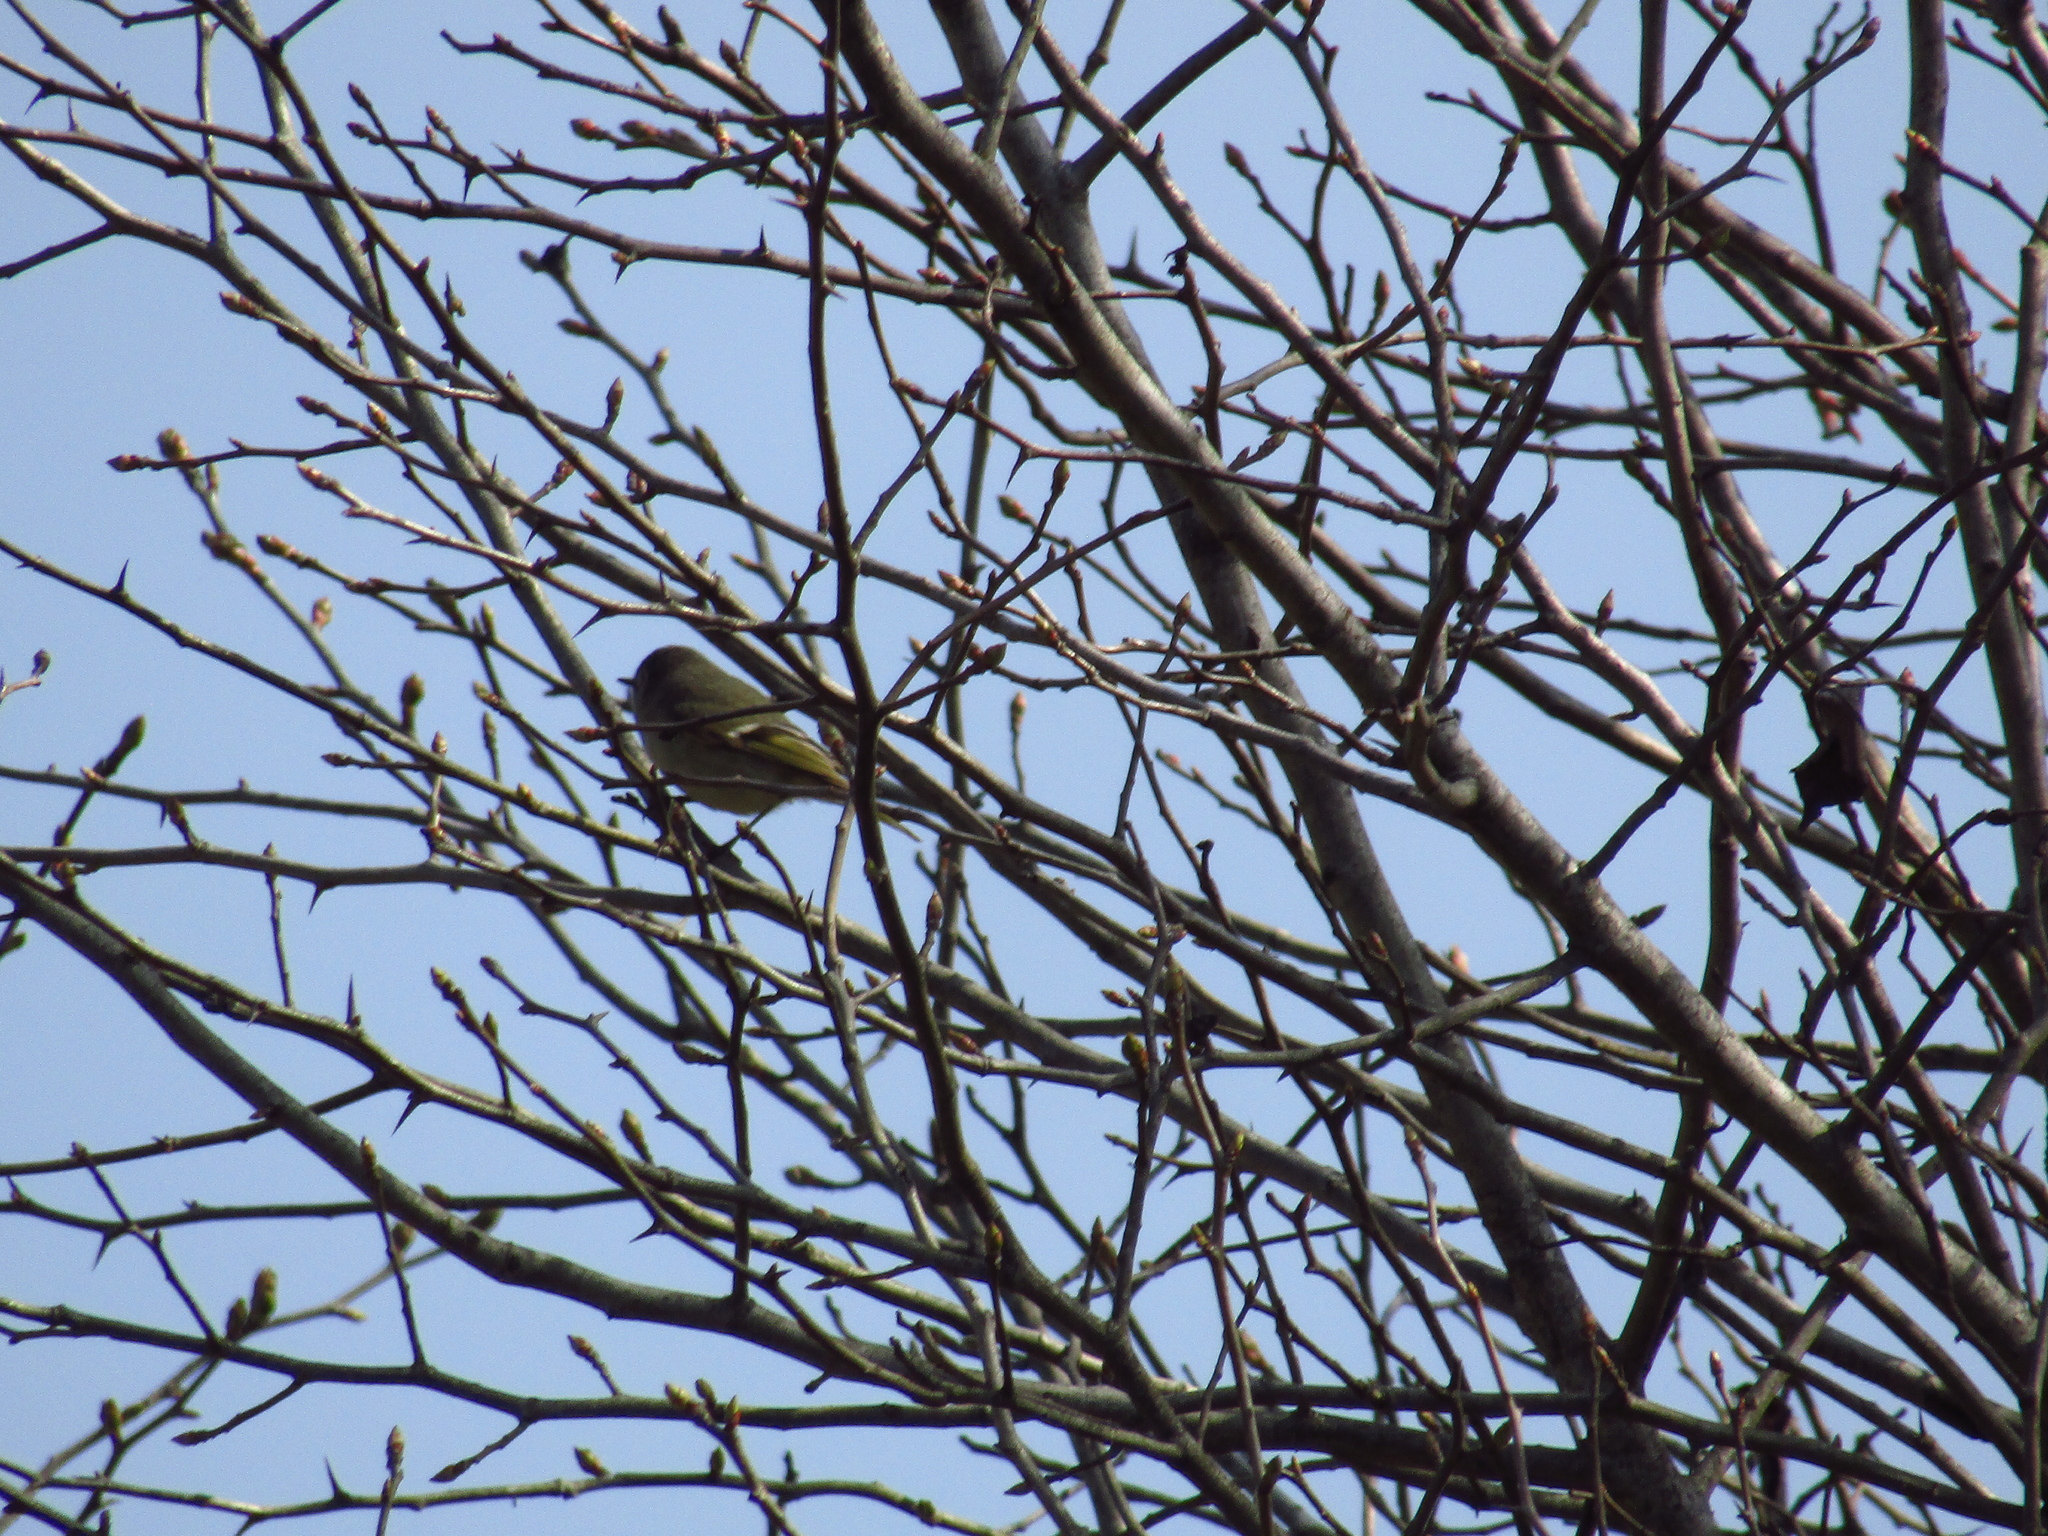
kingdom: Animalia
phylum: Chordata
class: Aves
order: Passeriformes
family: Regulidae
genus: Regulus
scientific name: Regulus calendula
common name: Ruby-crowned kinglet
